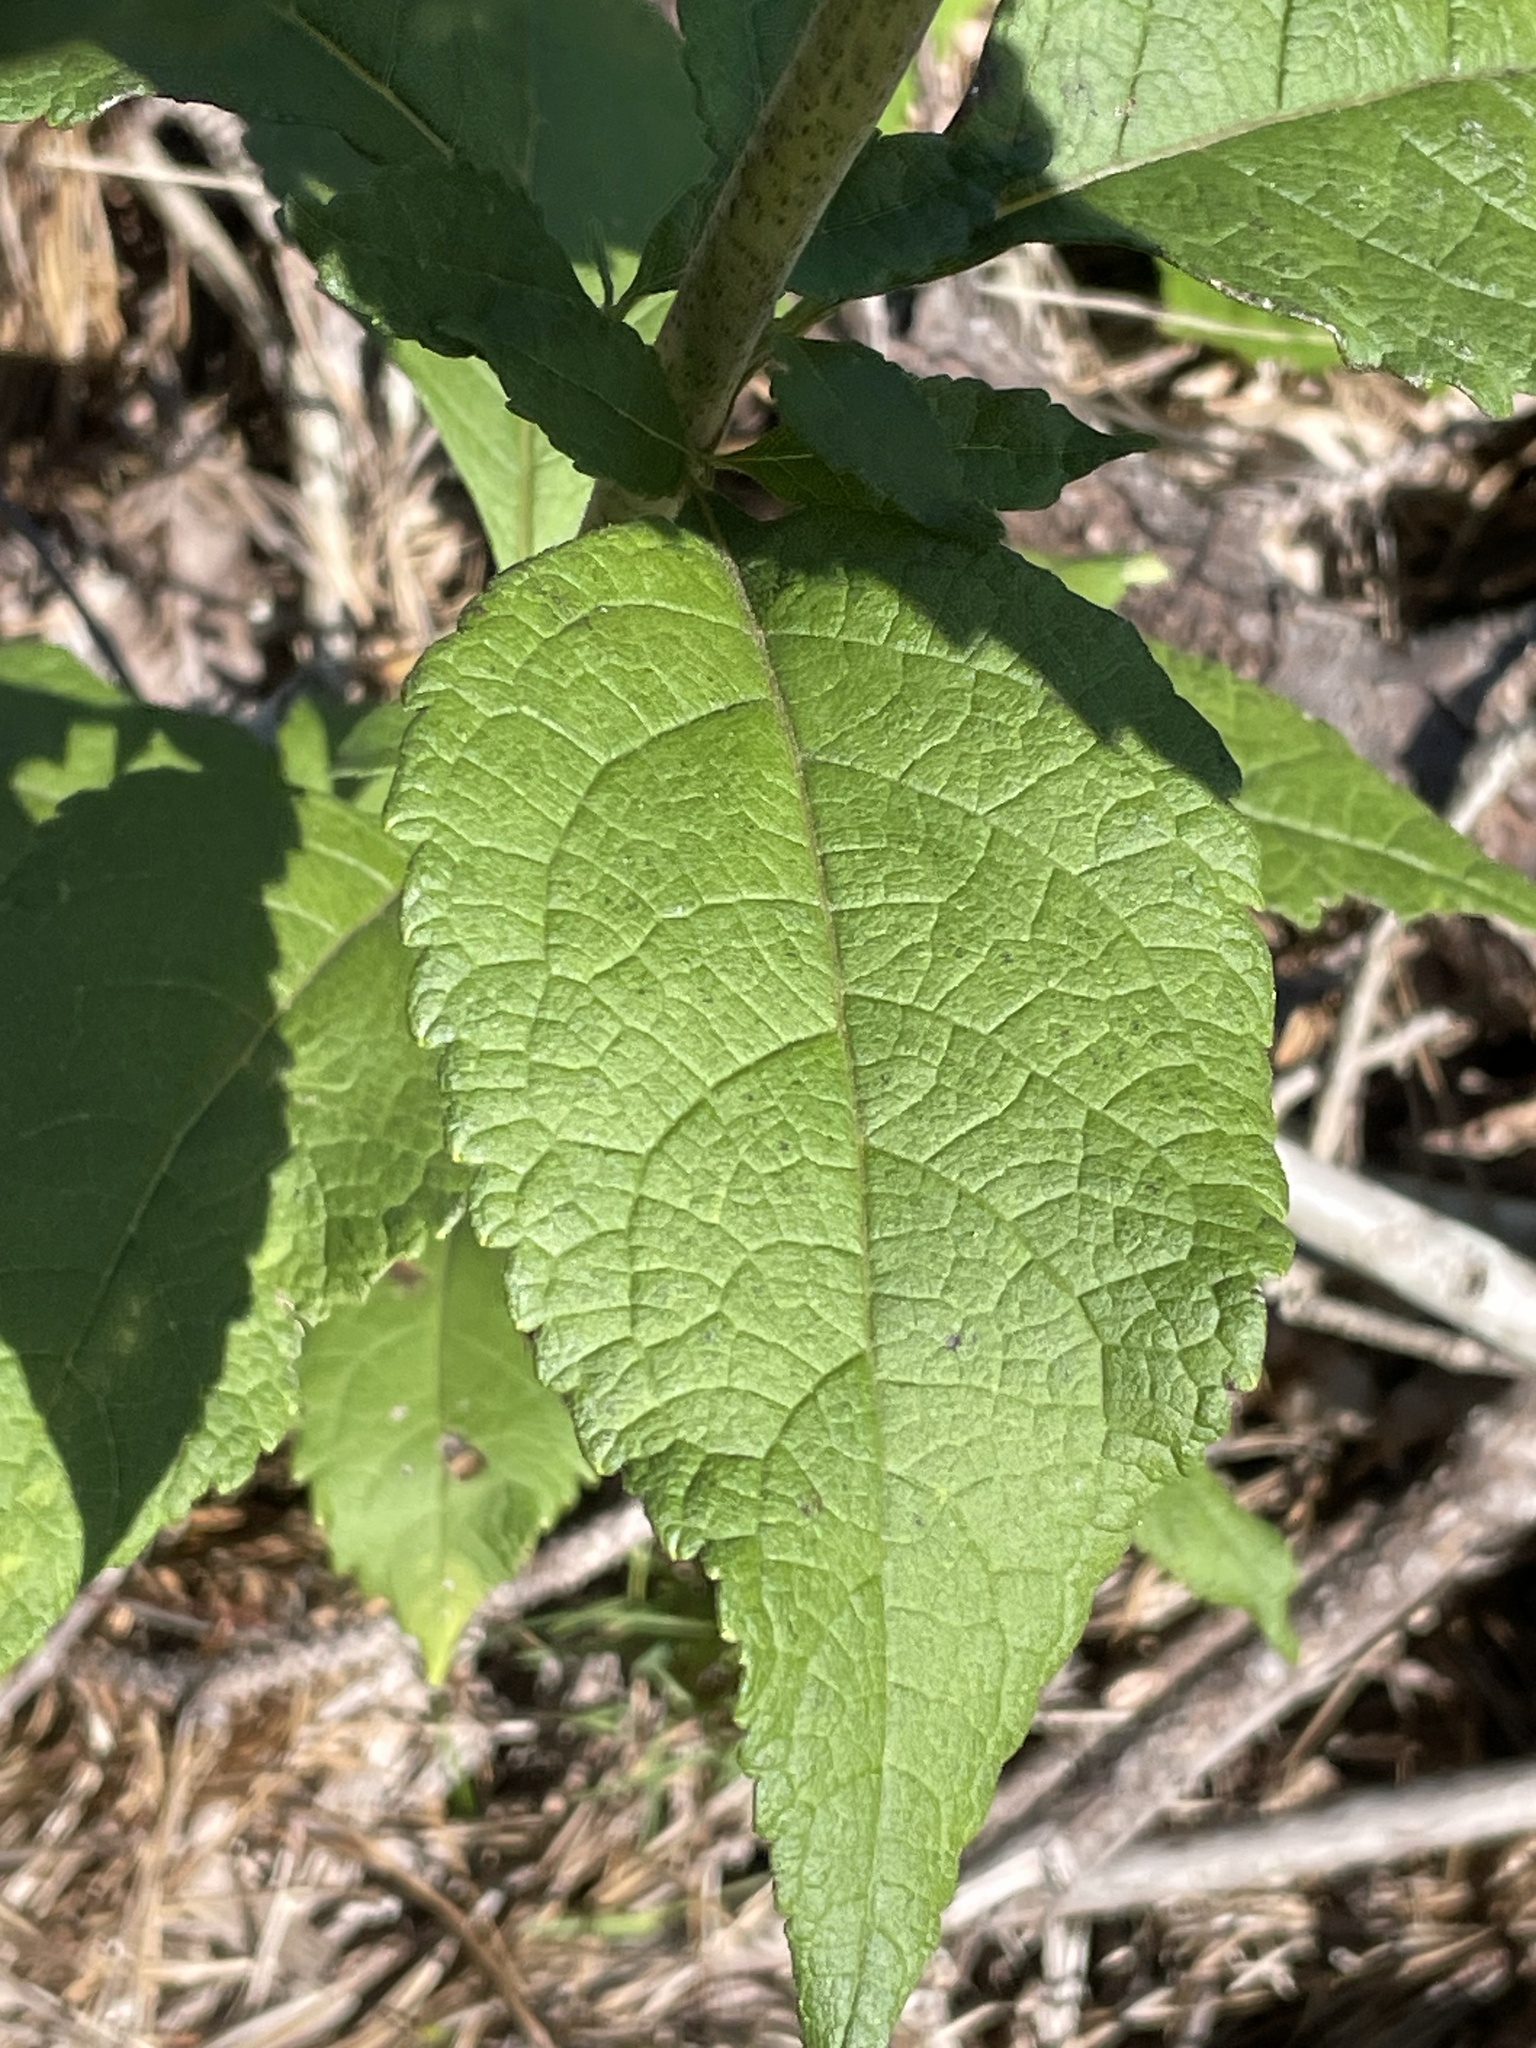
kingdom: Plantae
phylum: Tracheophyta
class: Magnoliopsida
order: Asterales
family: Asteraceae
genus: Eutrochium
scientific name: Eutrochium purpureum
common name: Gravelroot
